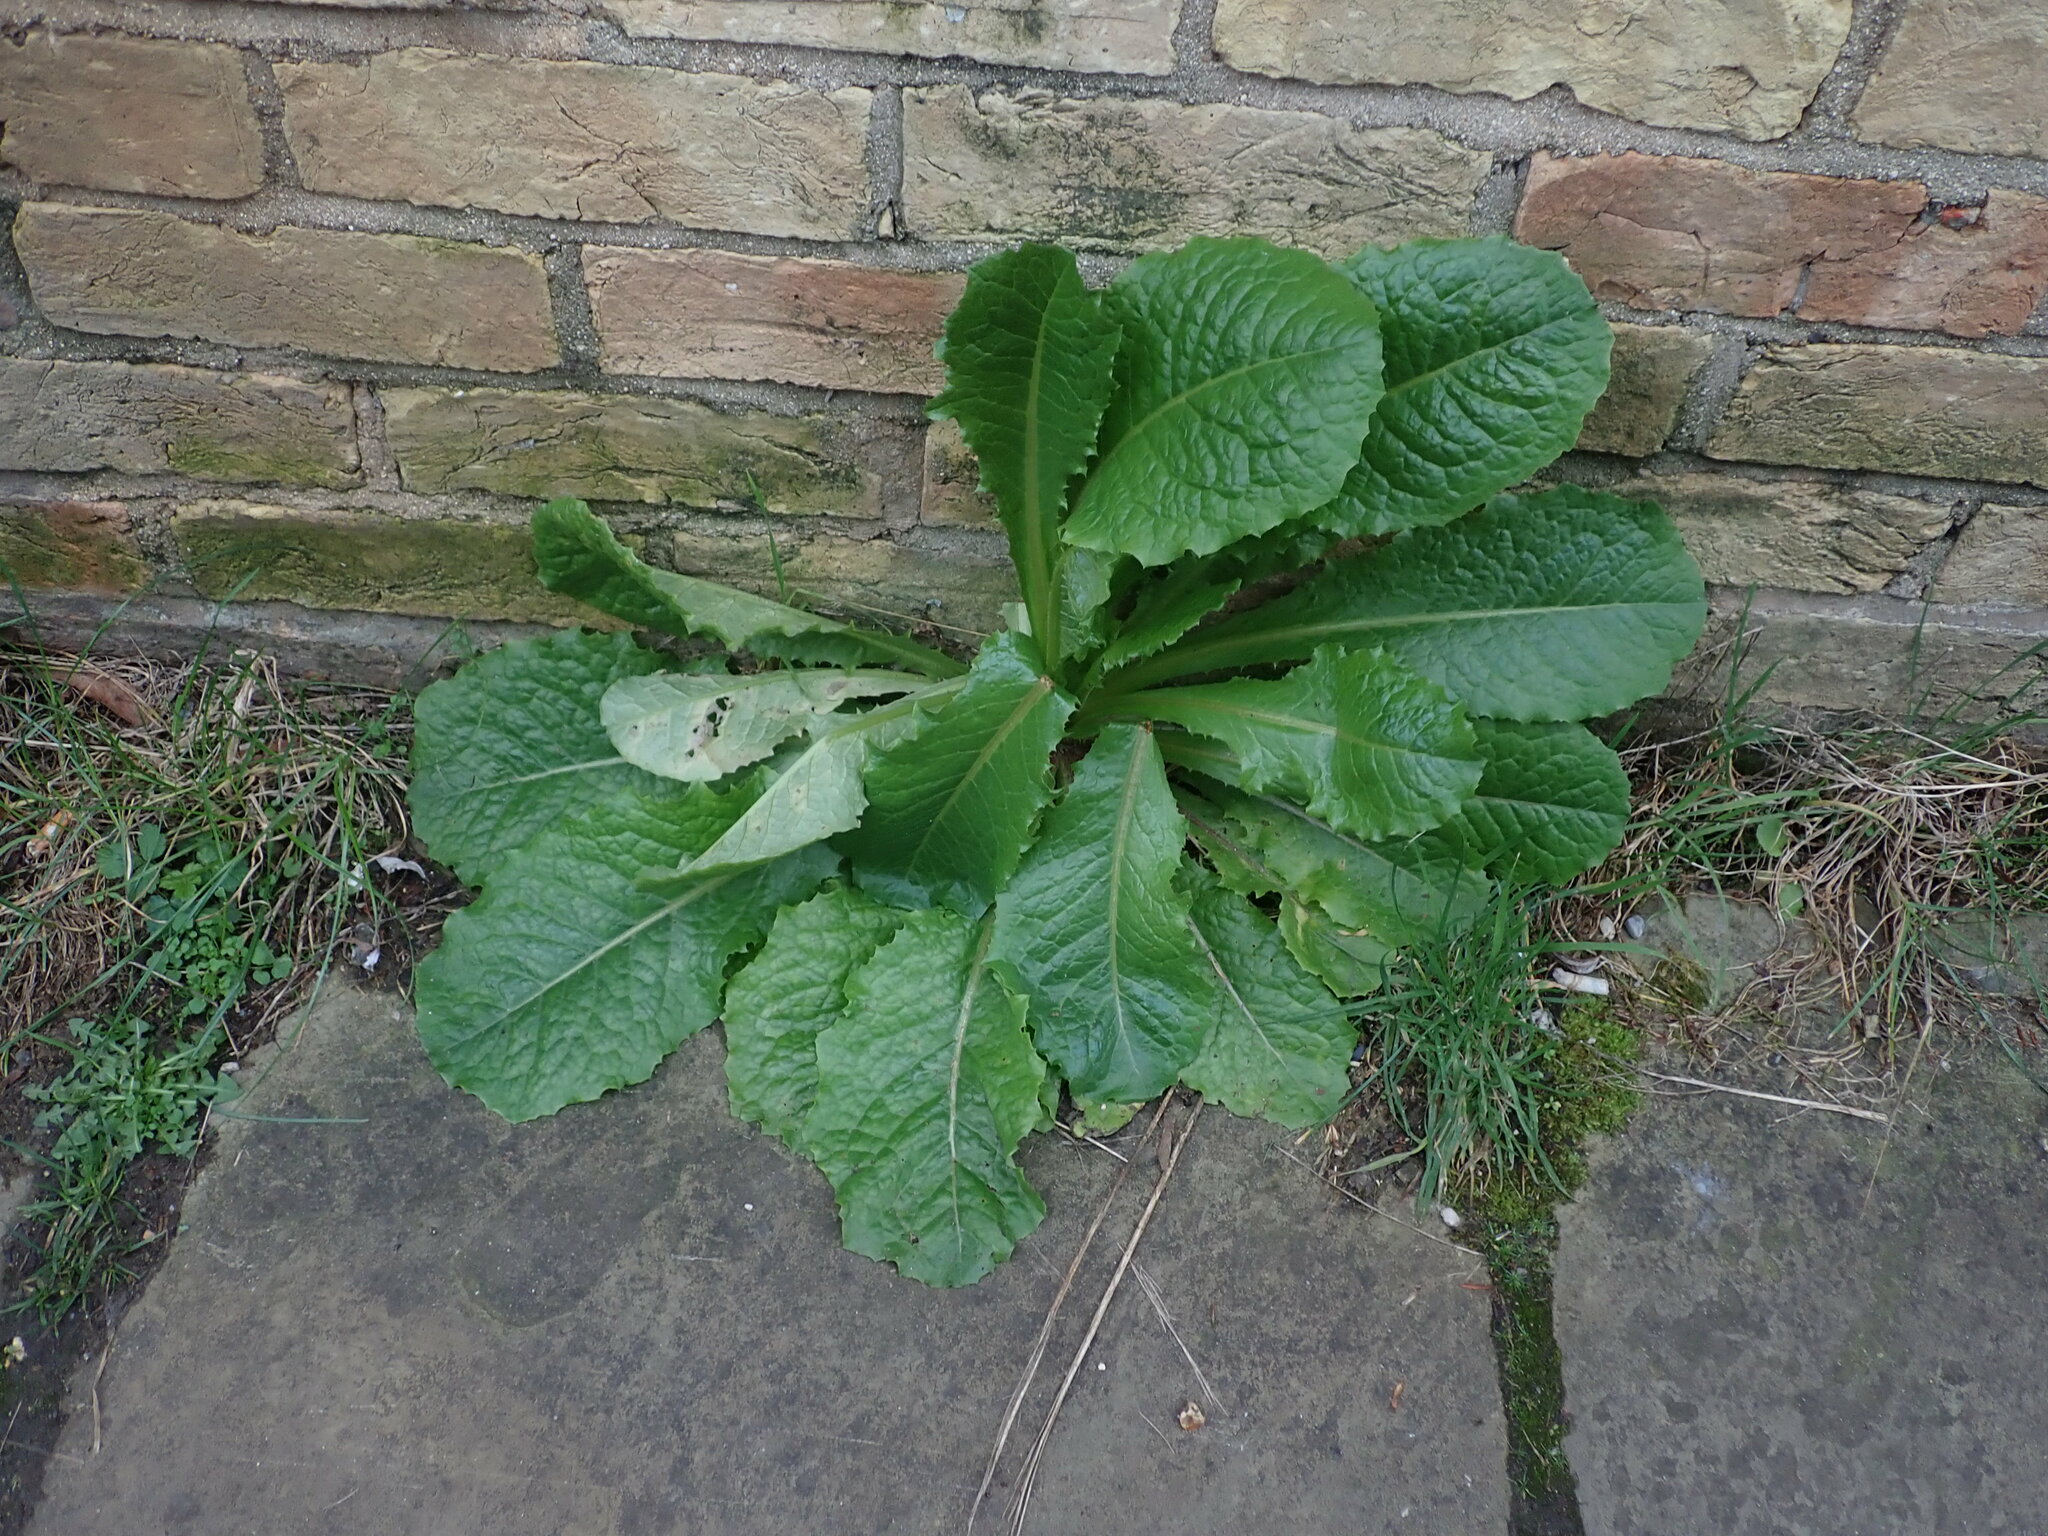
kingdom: Plantae
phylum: Tracheophyta
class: Magnoliopsida
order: Asterales
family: Asteraceae
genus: Lactuca
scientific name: Lactuca virosa
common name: Great lettuce
